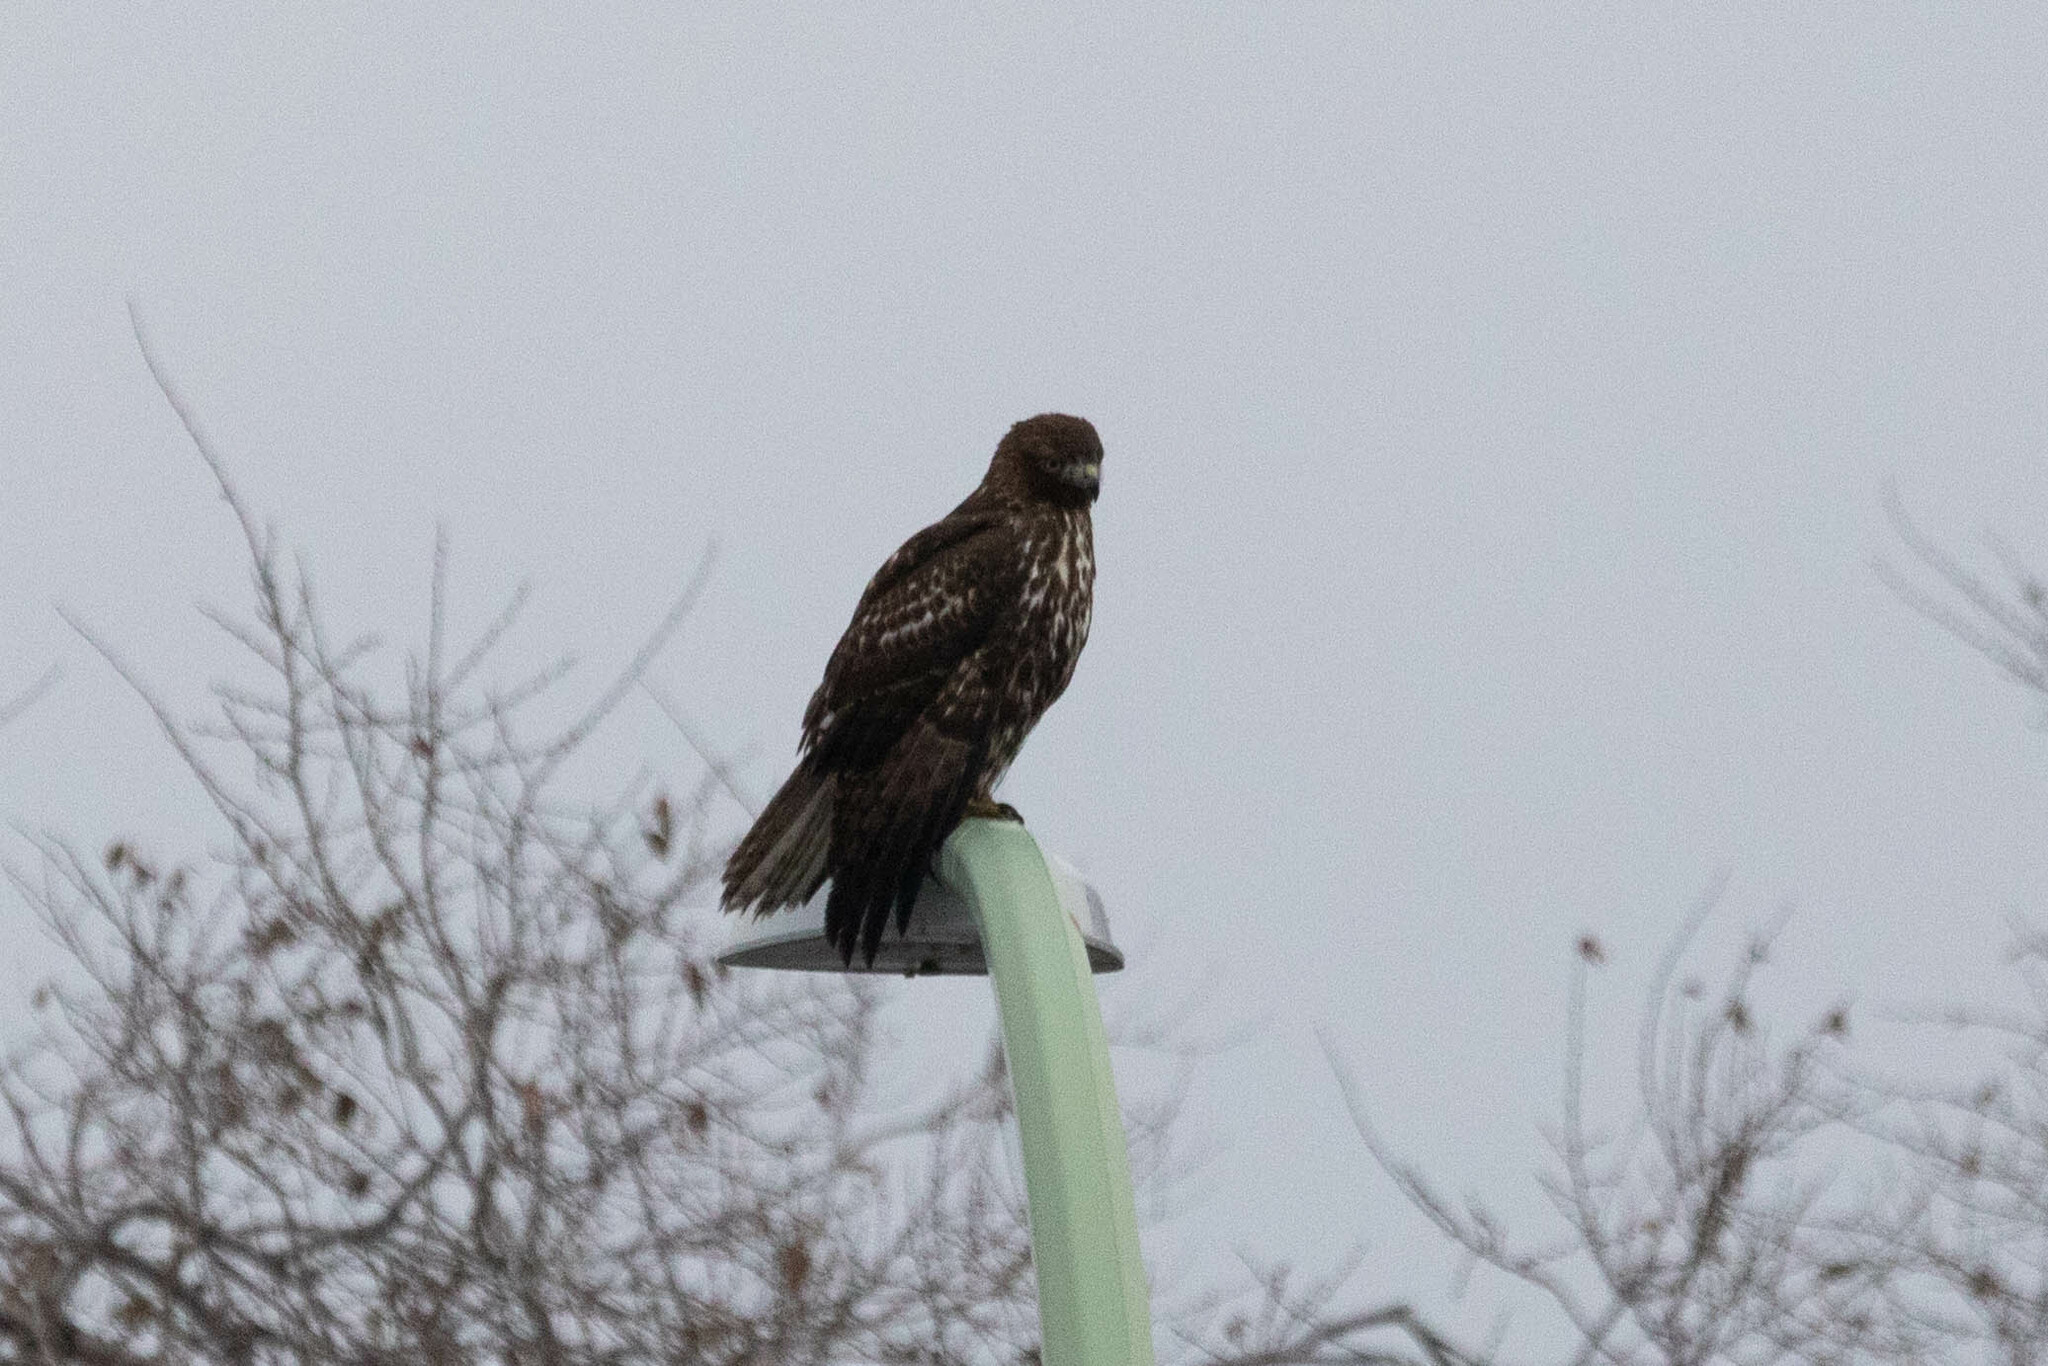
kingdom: Animalia
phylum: Chordata
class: Aves
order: Accipitriformes
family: Accipitridae
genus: Buteo
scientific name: Buteo jamaicensis
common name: Red-tailed hawk
